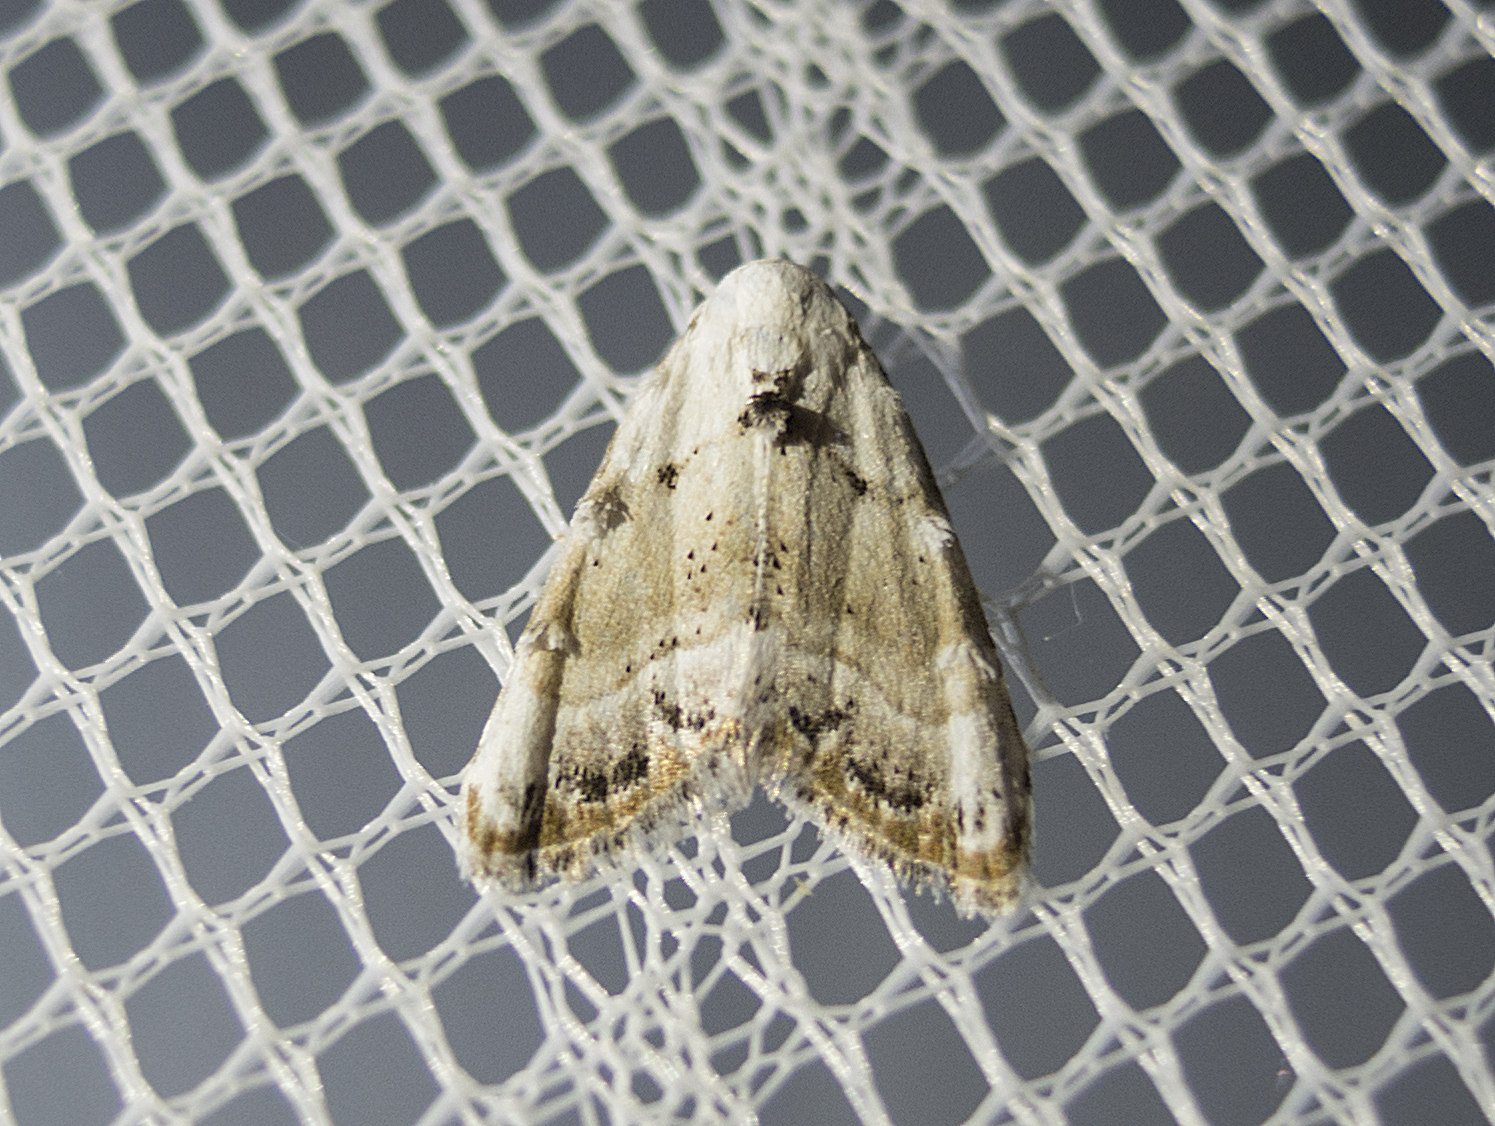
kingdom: Animalia
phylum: Arthropoda
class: Insecta
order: Lepidoptera
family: Nolidae
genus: Nola
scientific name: Nola chlamitulalis
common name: Jersey black arches
